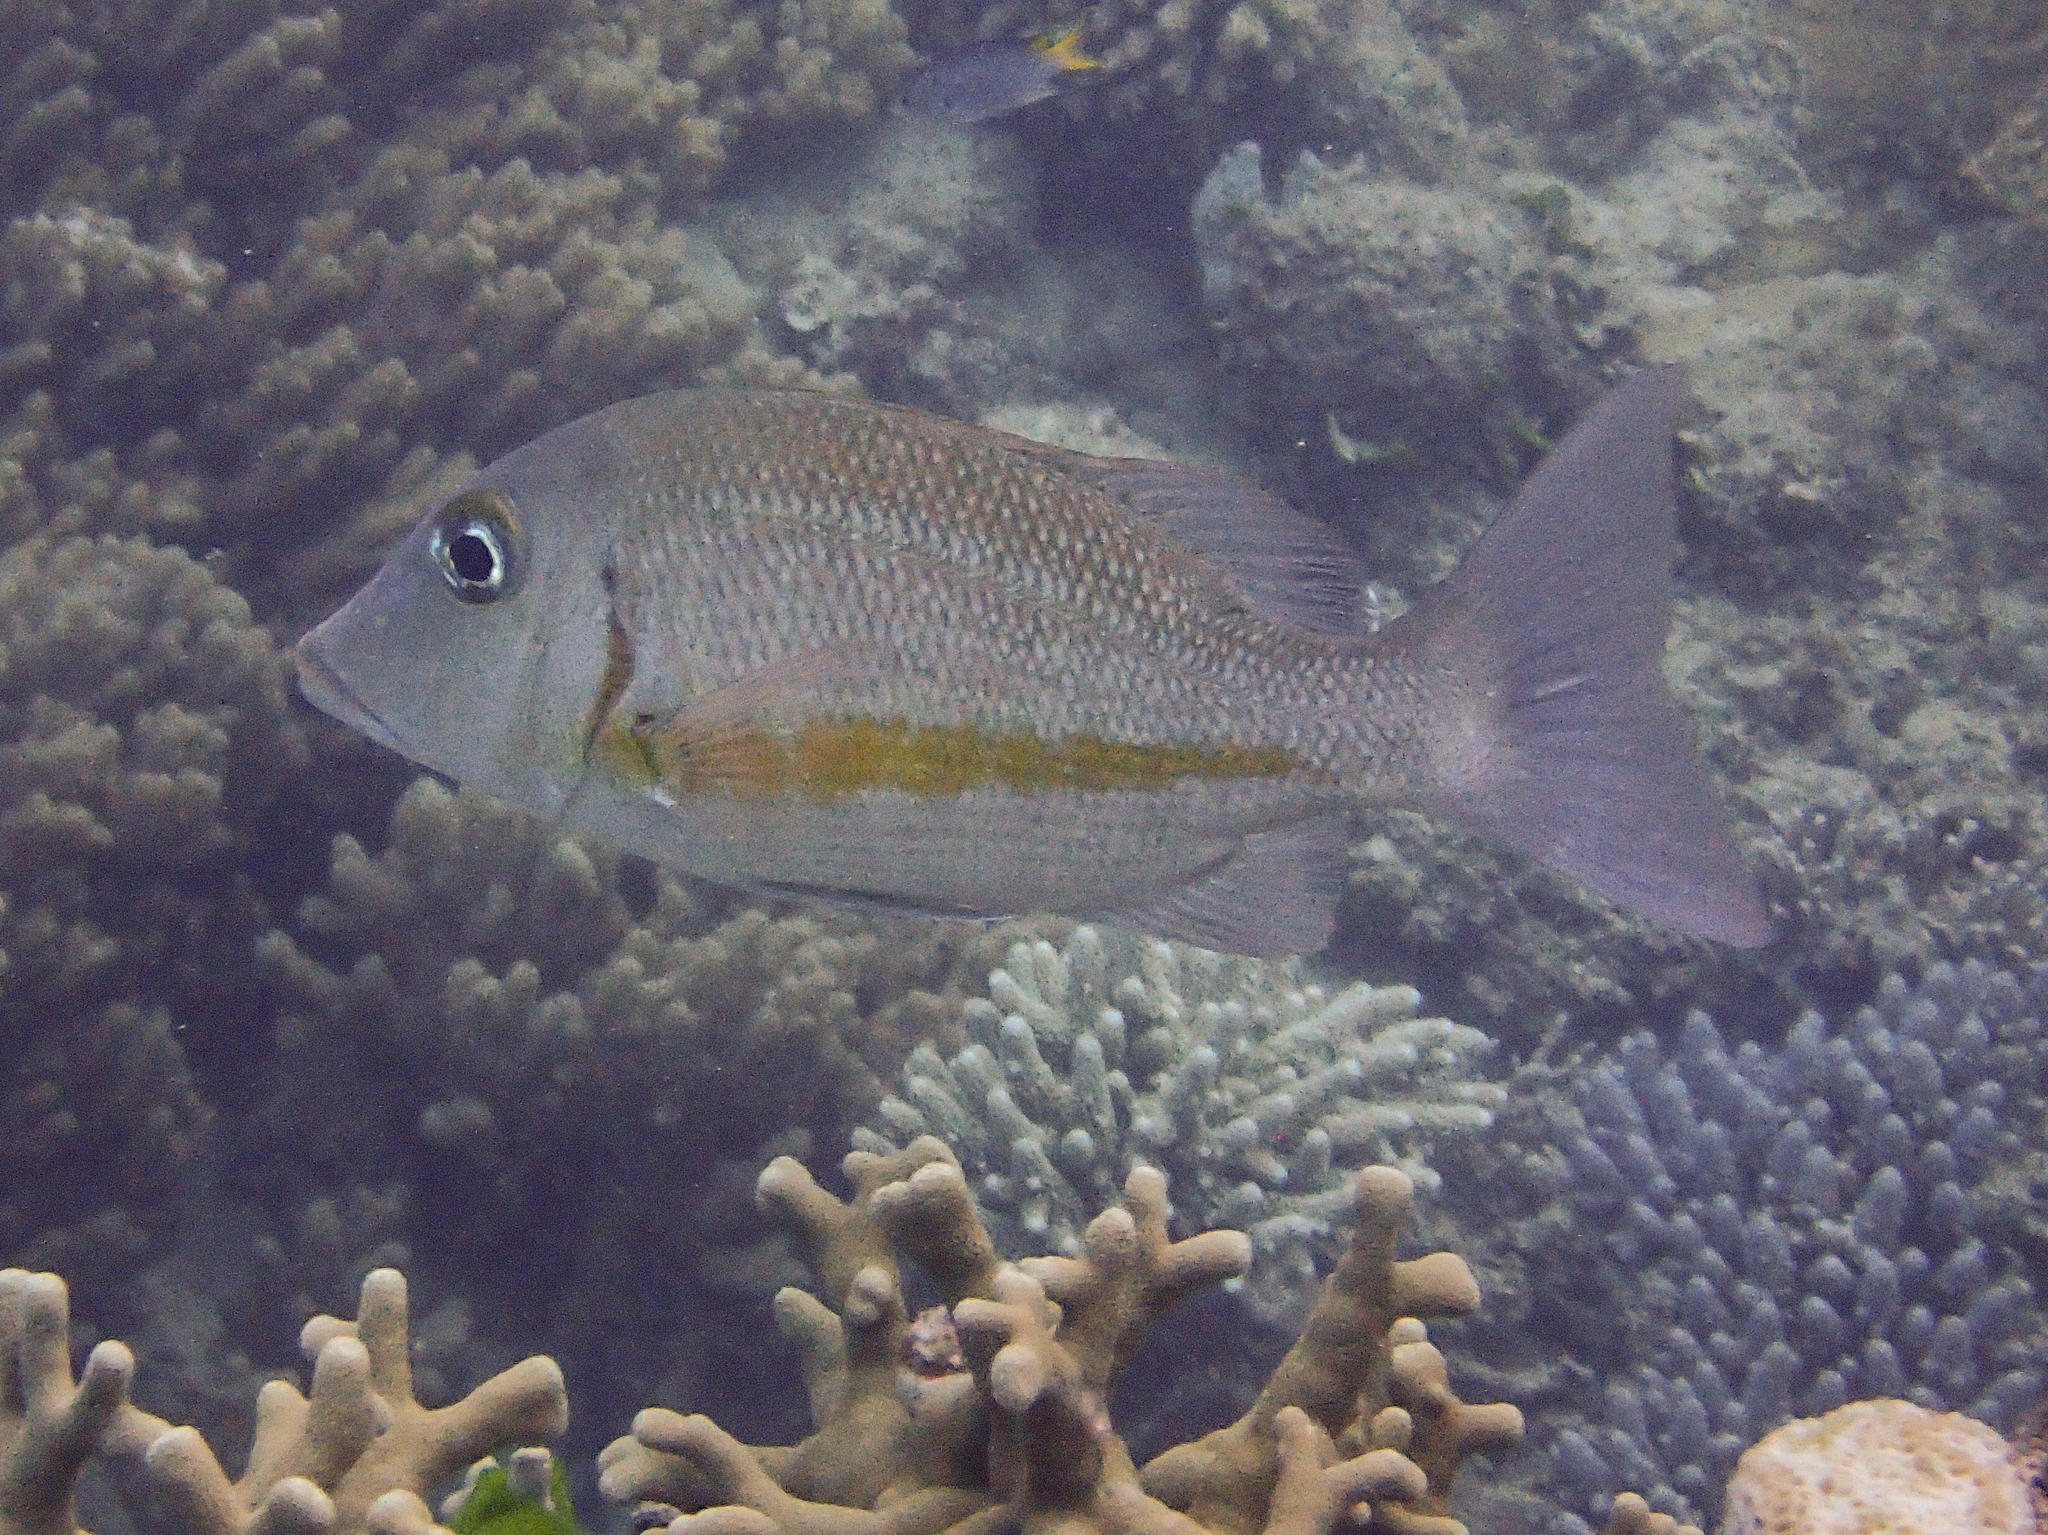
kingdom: Animalia
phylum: Chordata
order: Perciformes
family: Lethrinidae
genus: Lethrinus
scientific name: Lethrinus obsoletus
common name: Orange-striped emperor
